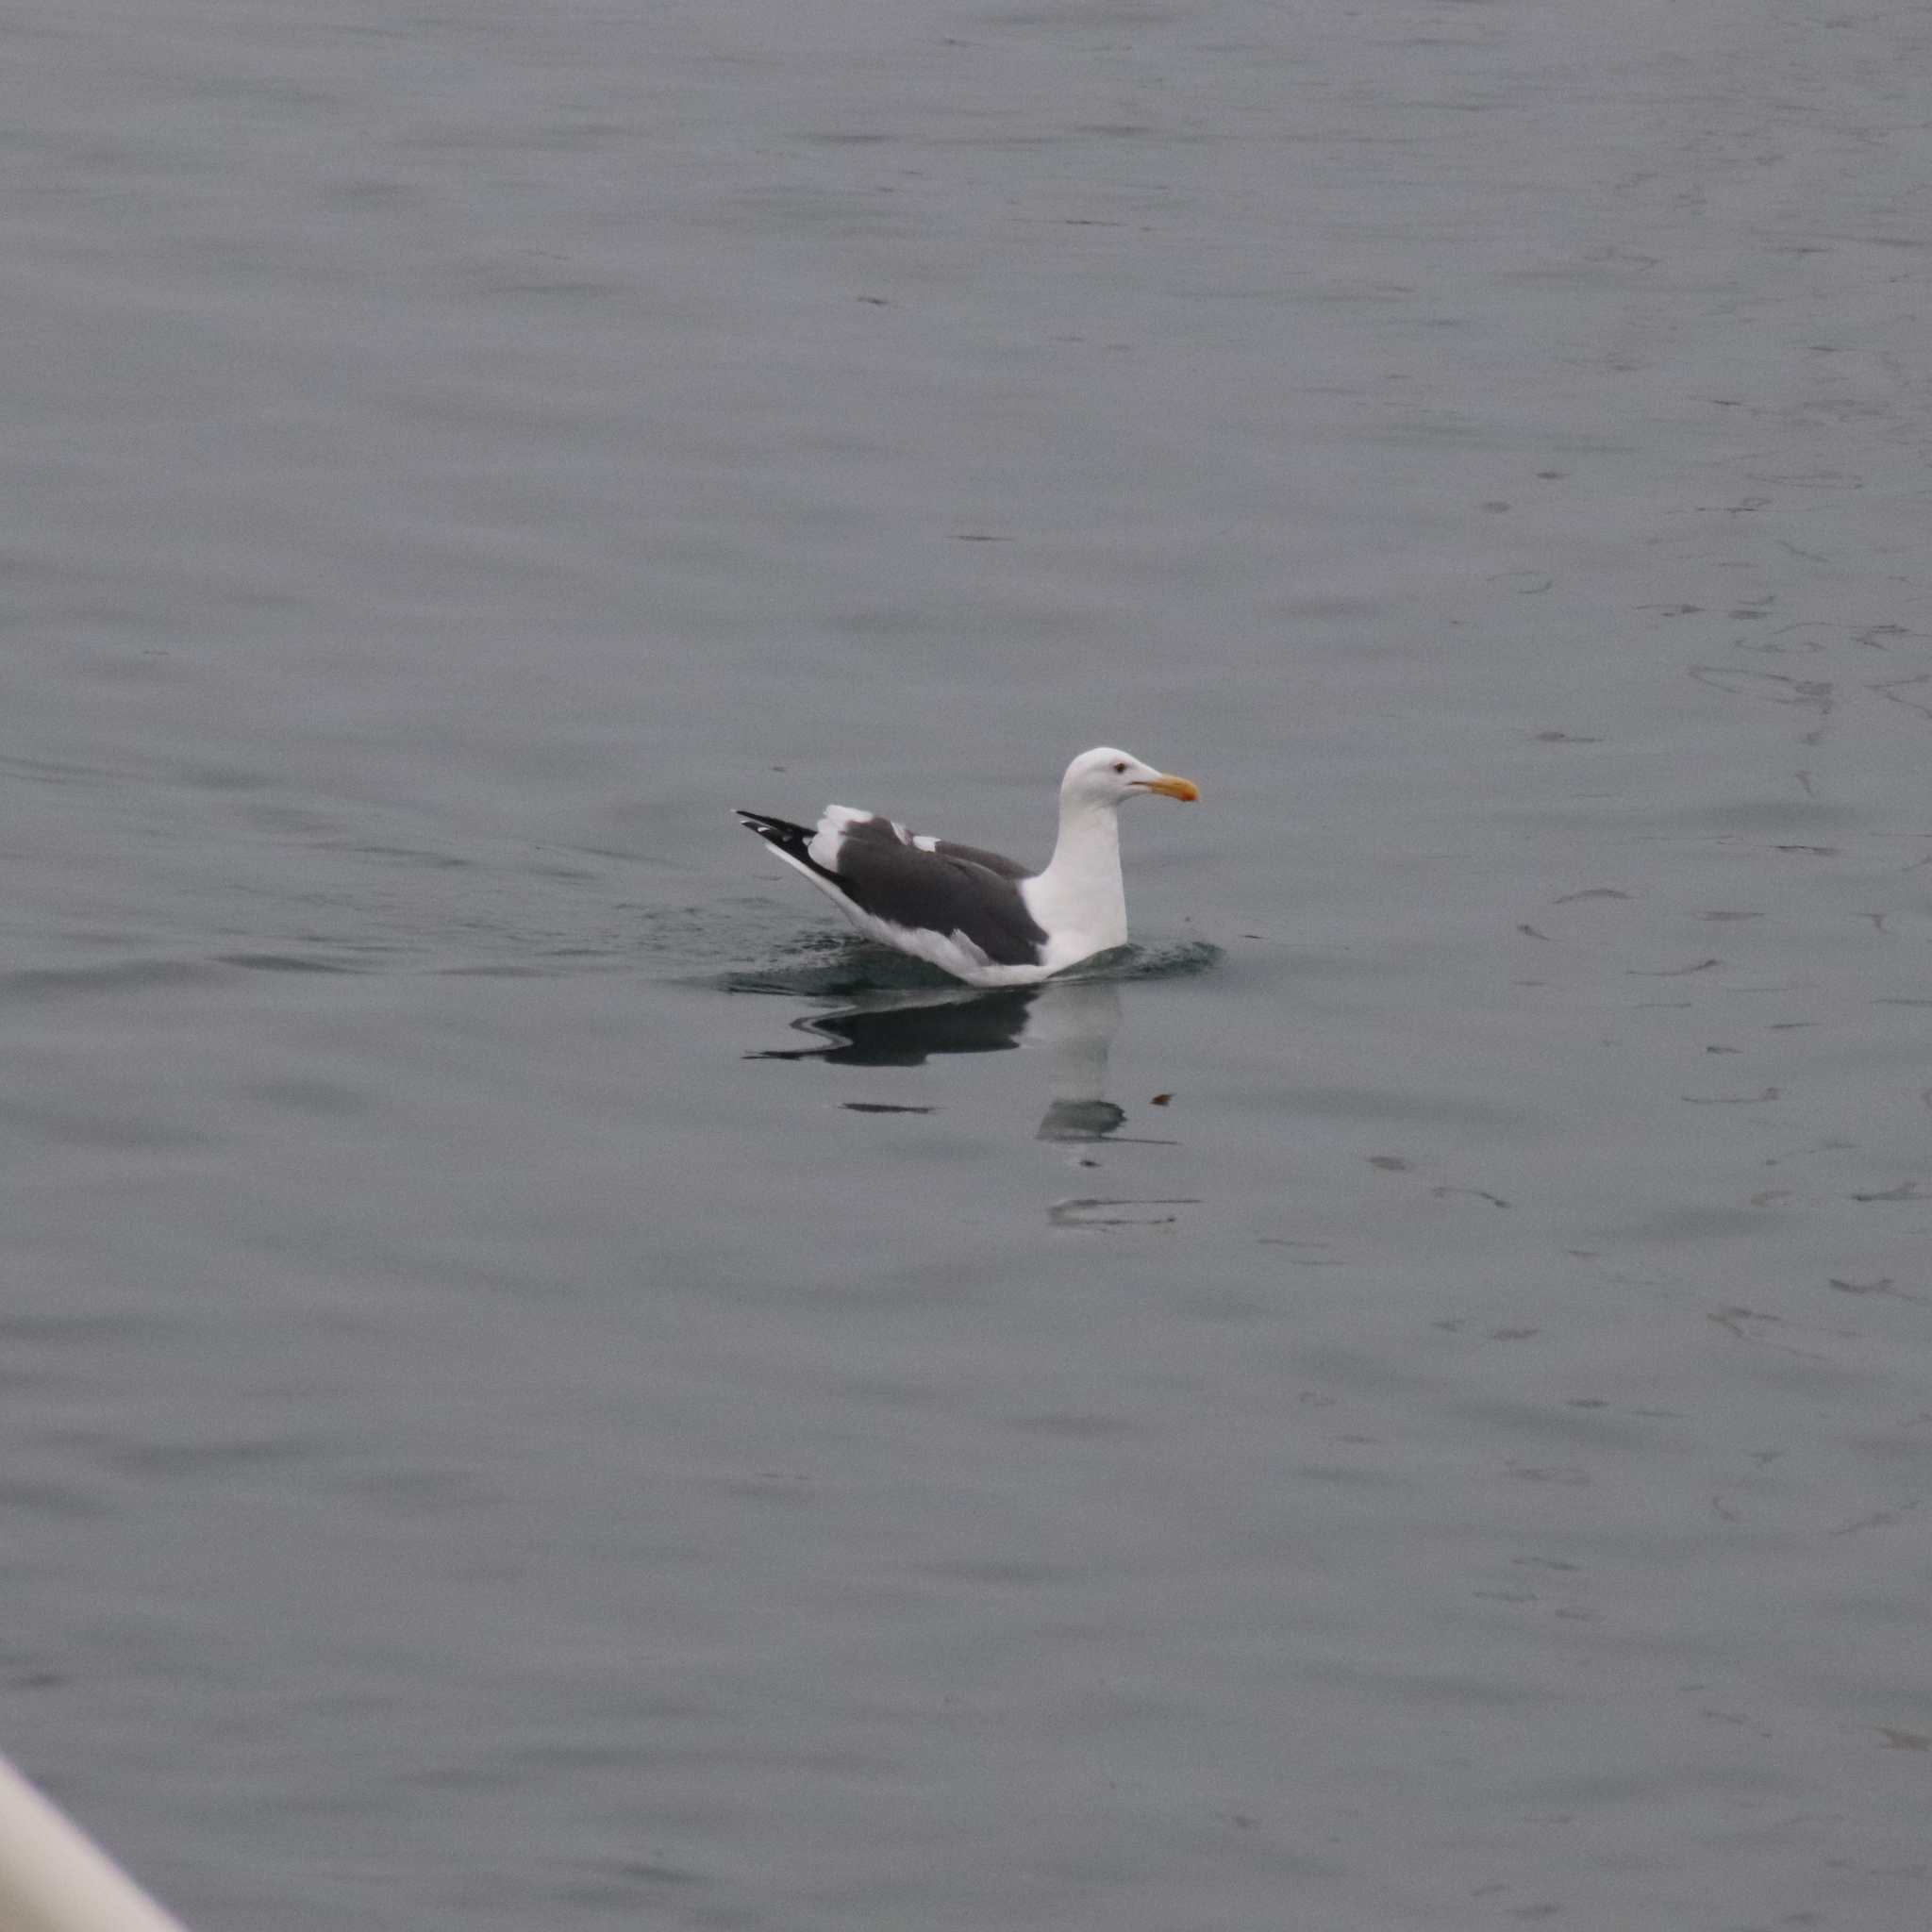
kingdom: Animalia
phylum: Chordata
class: Aves
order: Charadriiformes
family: Laridae
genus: Larus
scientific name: Larus occidentalis
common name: Western gull
